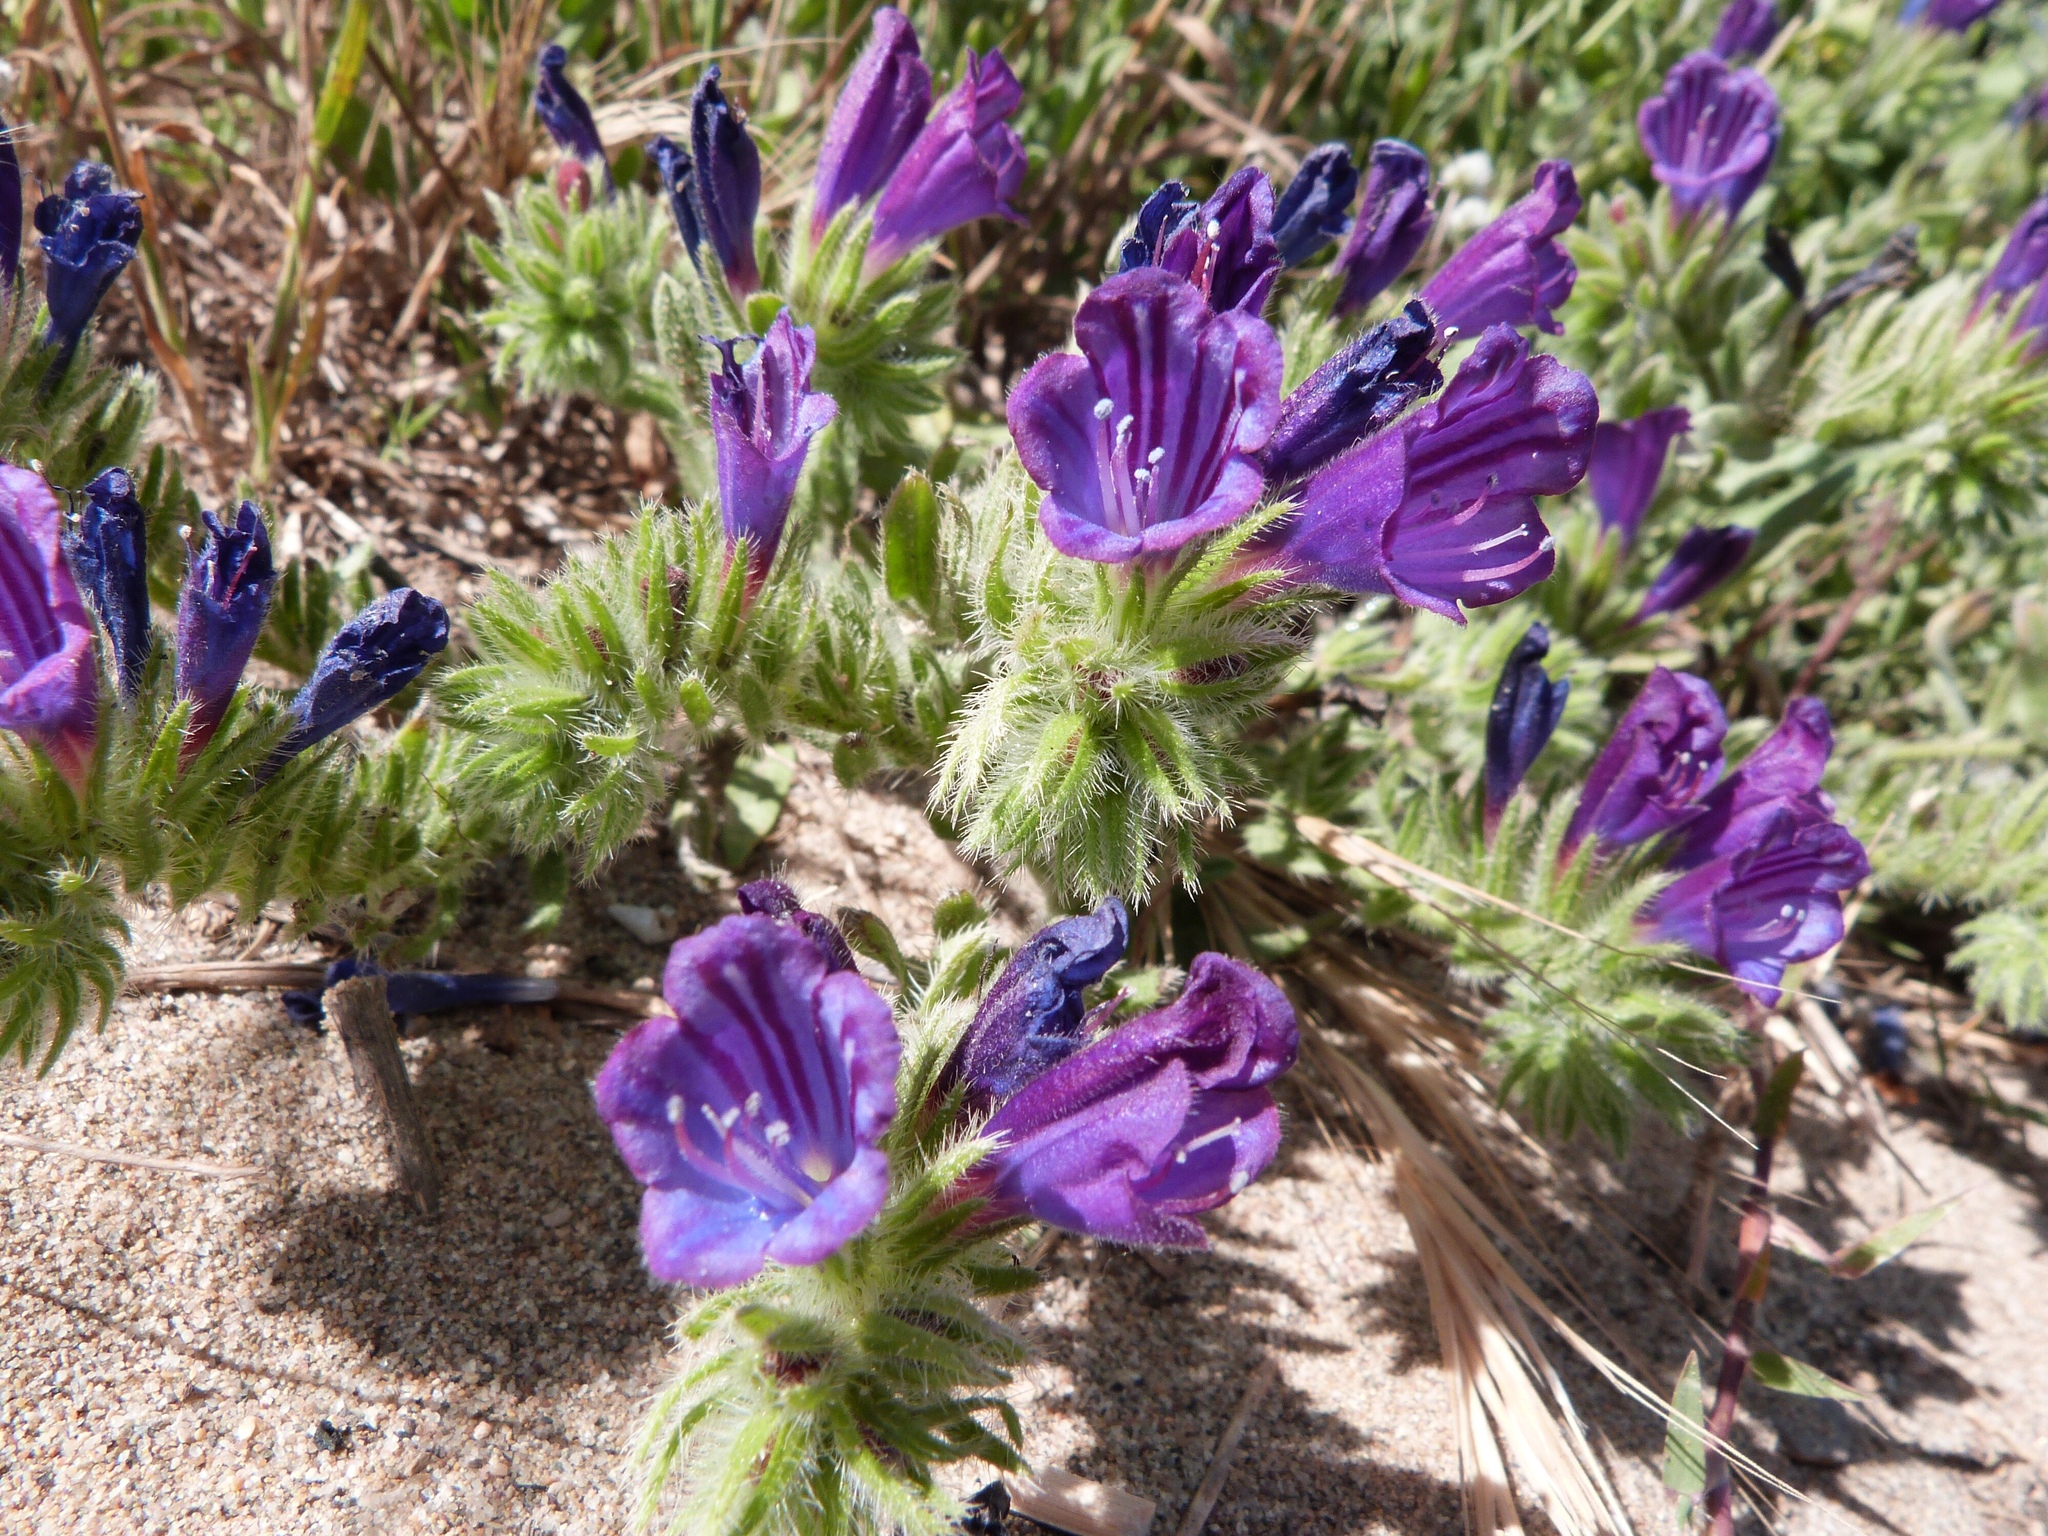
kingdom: Plantae
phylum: Tracheophyta
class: Magnoliopsida
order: Boraginales
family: Boraginaceae
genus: Echium
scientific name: Echium sabulicola
